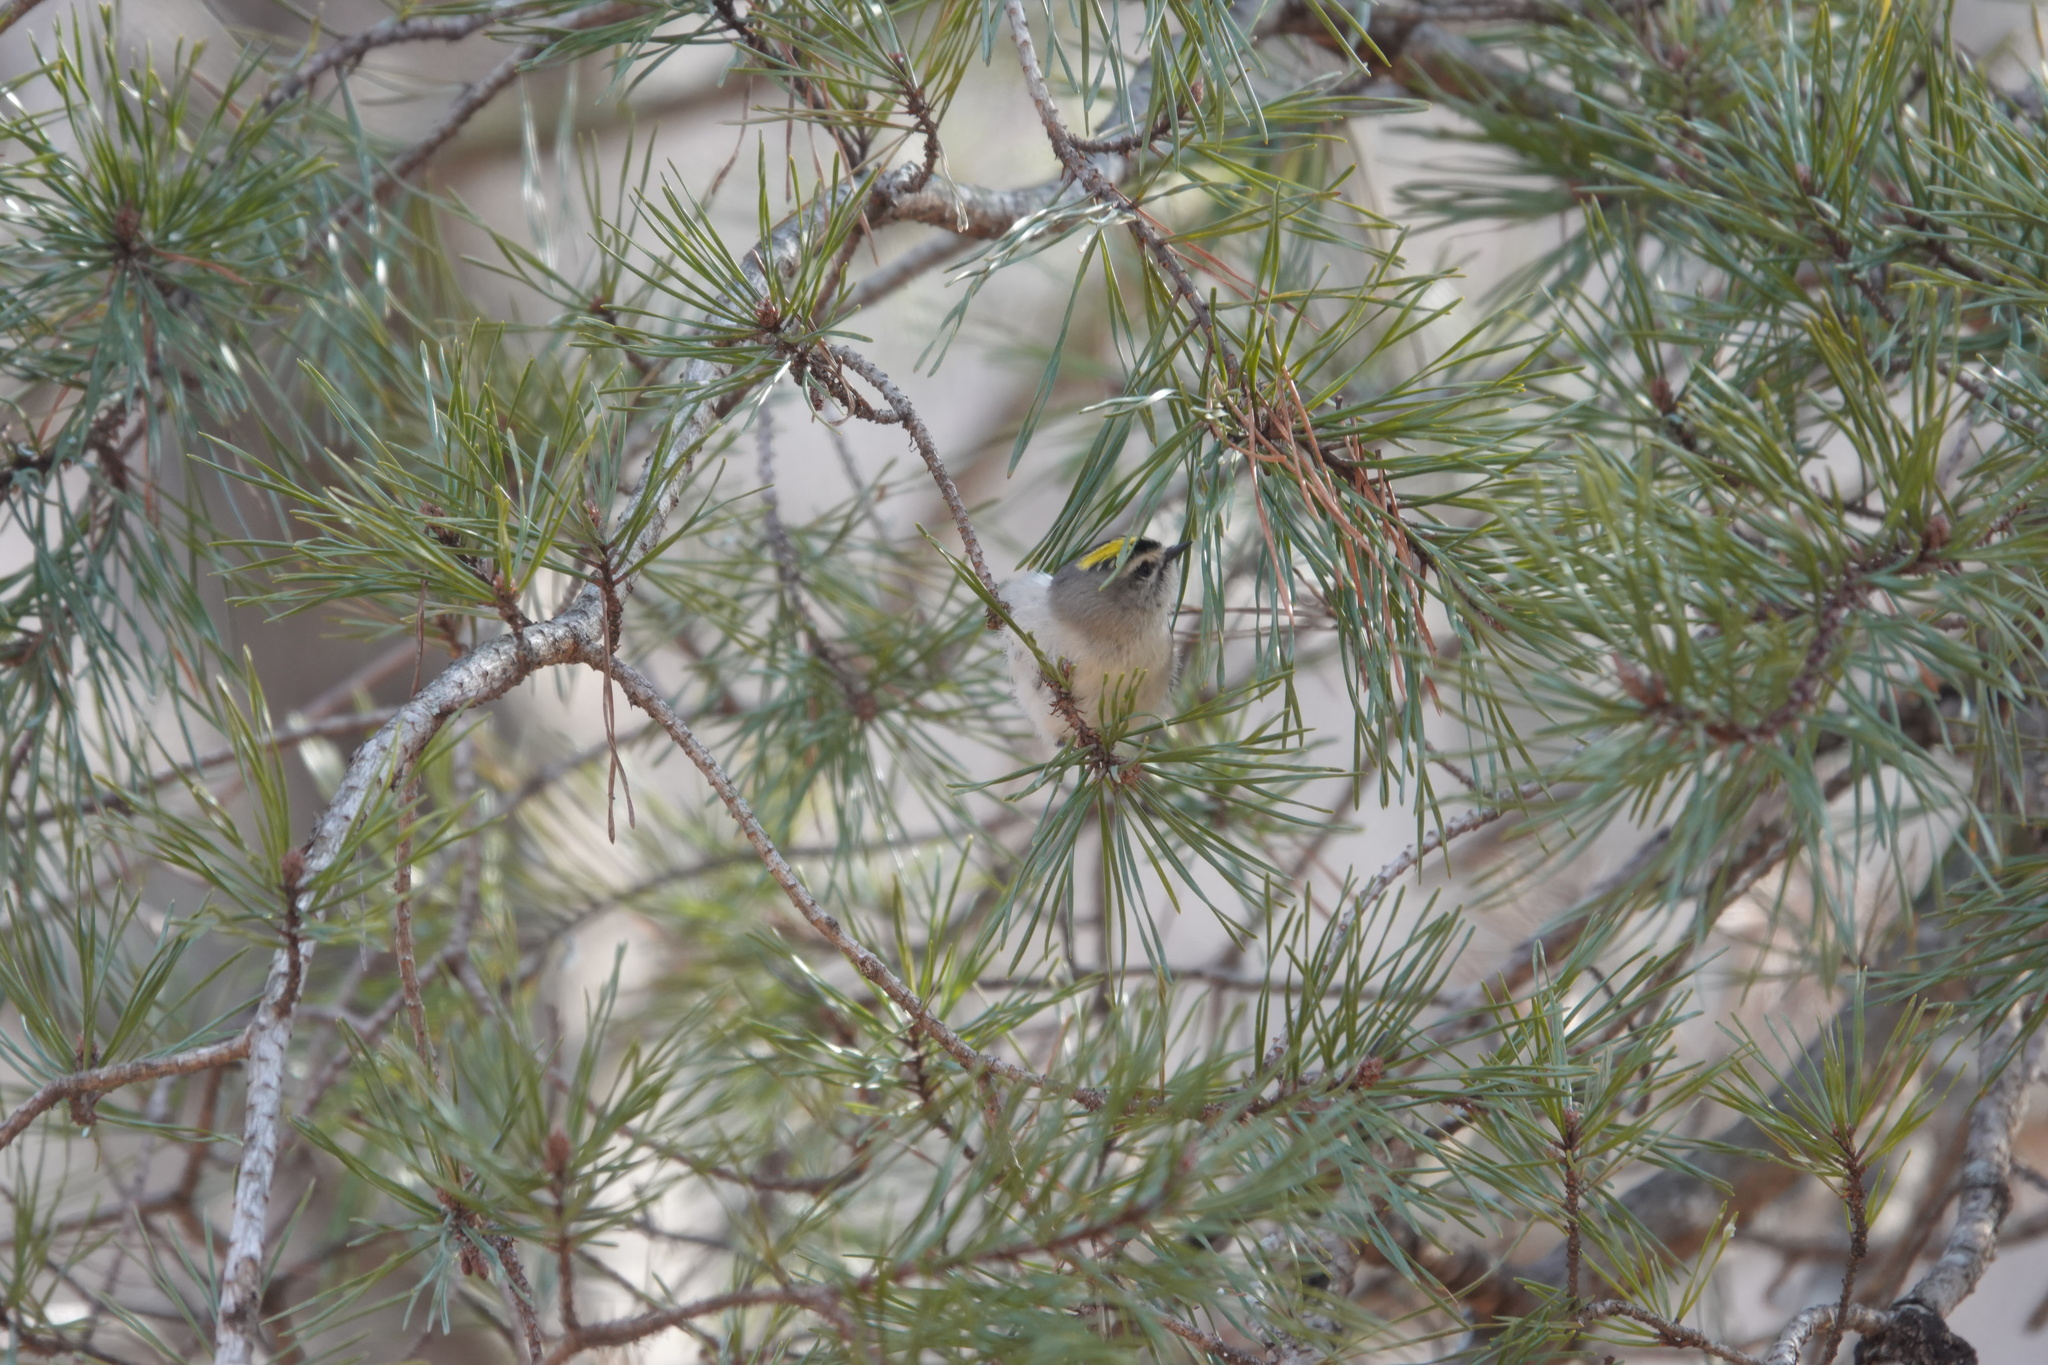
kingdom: Animalia
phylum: Chordata
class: Aves
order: Passeriformes
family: Regulidae
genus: Regulus
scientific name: Regulus satrapa
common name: Golden-crowned kinglet
